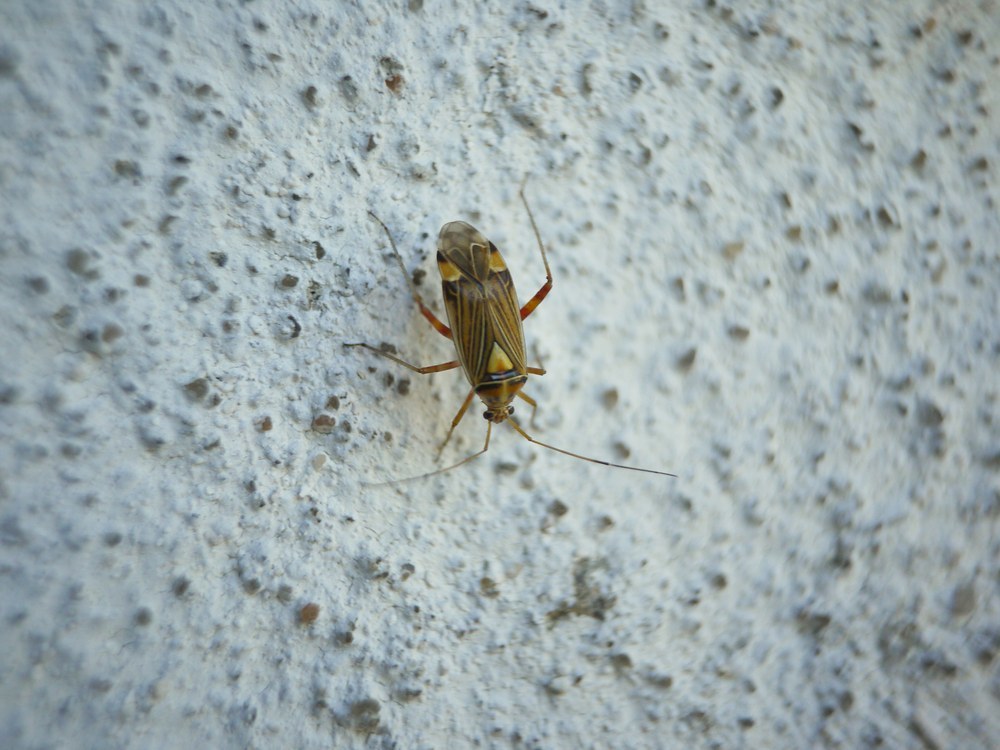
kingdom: Animalia
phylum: Arthropoda
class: Insecta
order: Hemiptera
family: Miridae
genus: Rhabdomiris
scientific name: Rhabdomiris striatellus
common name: Plant bug
